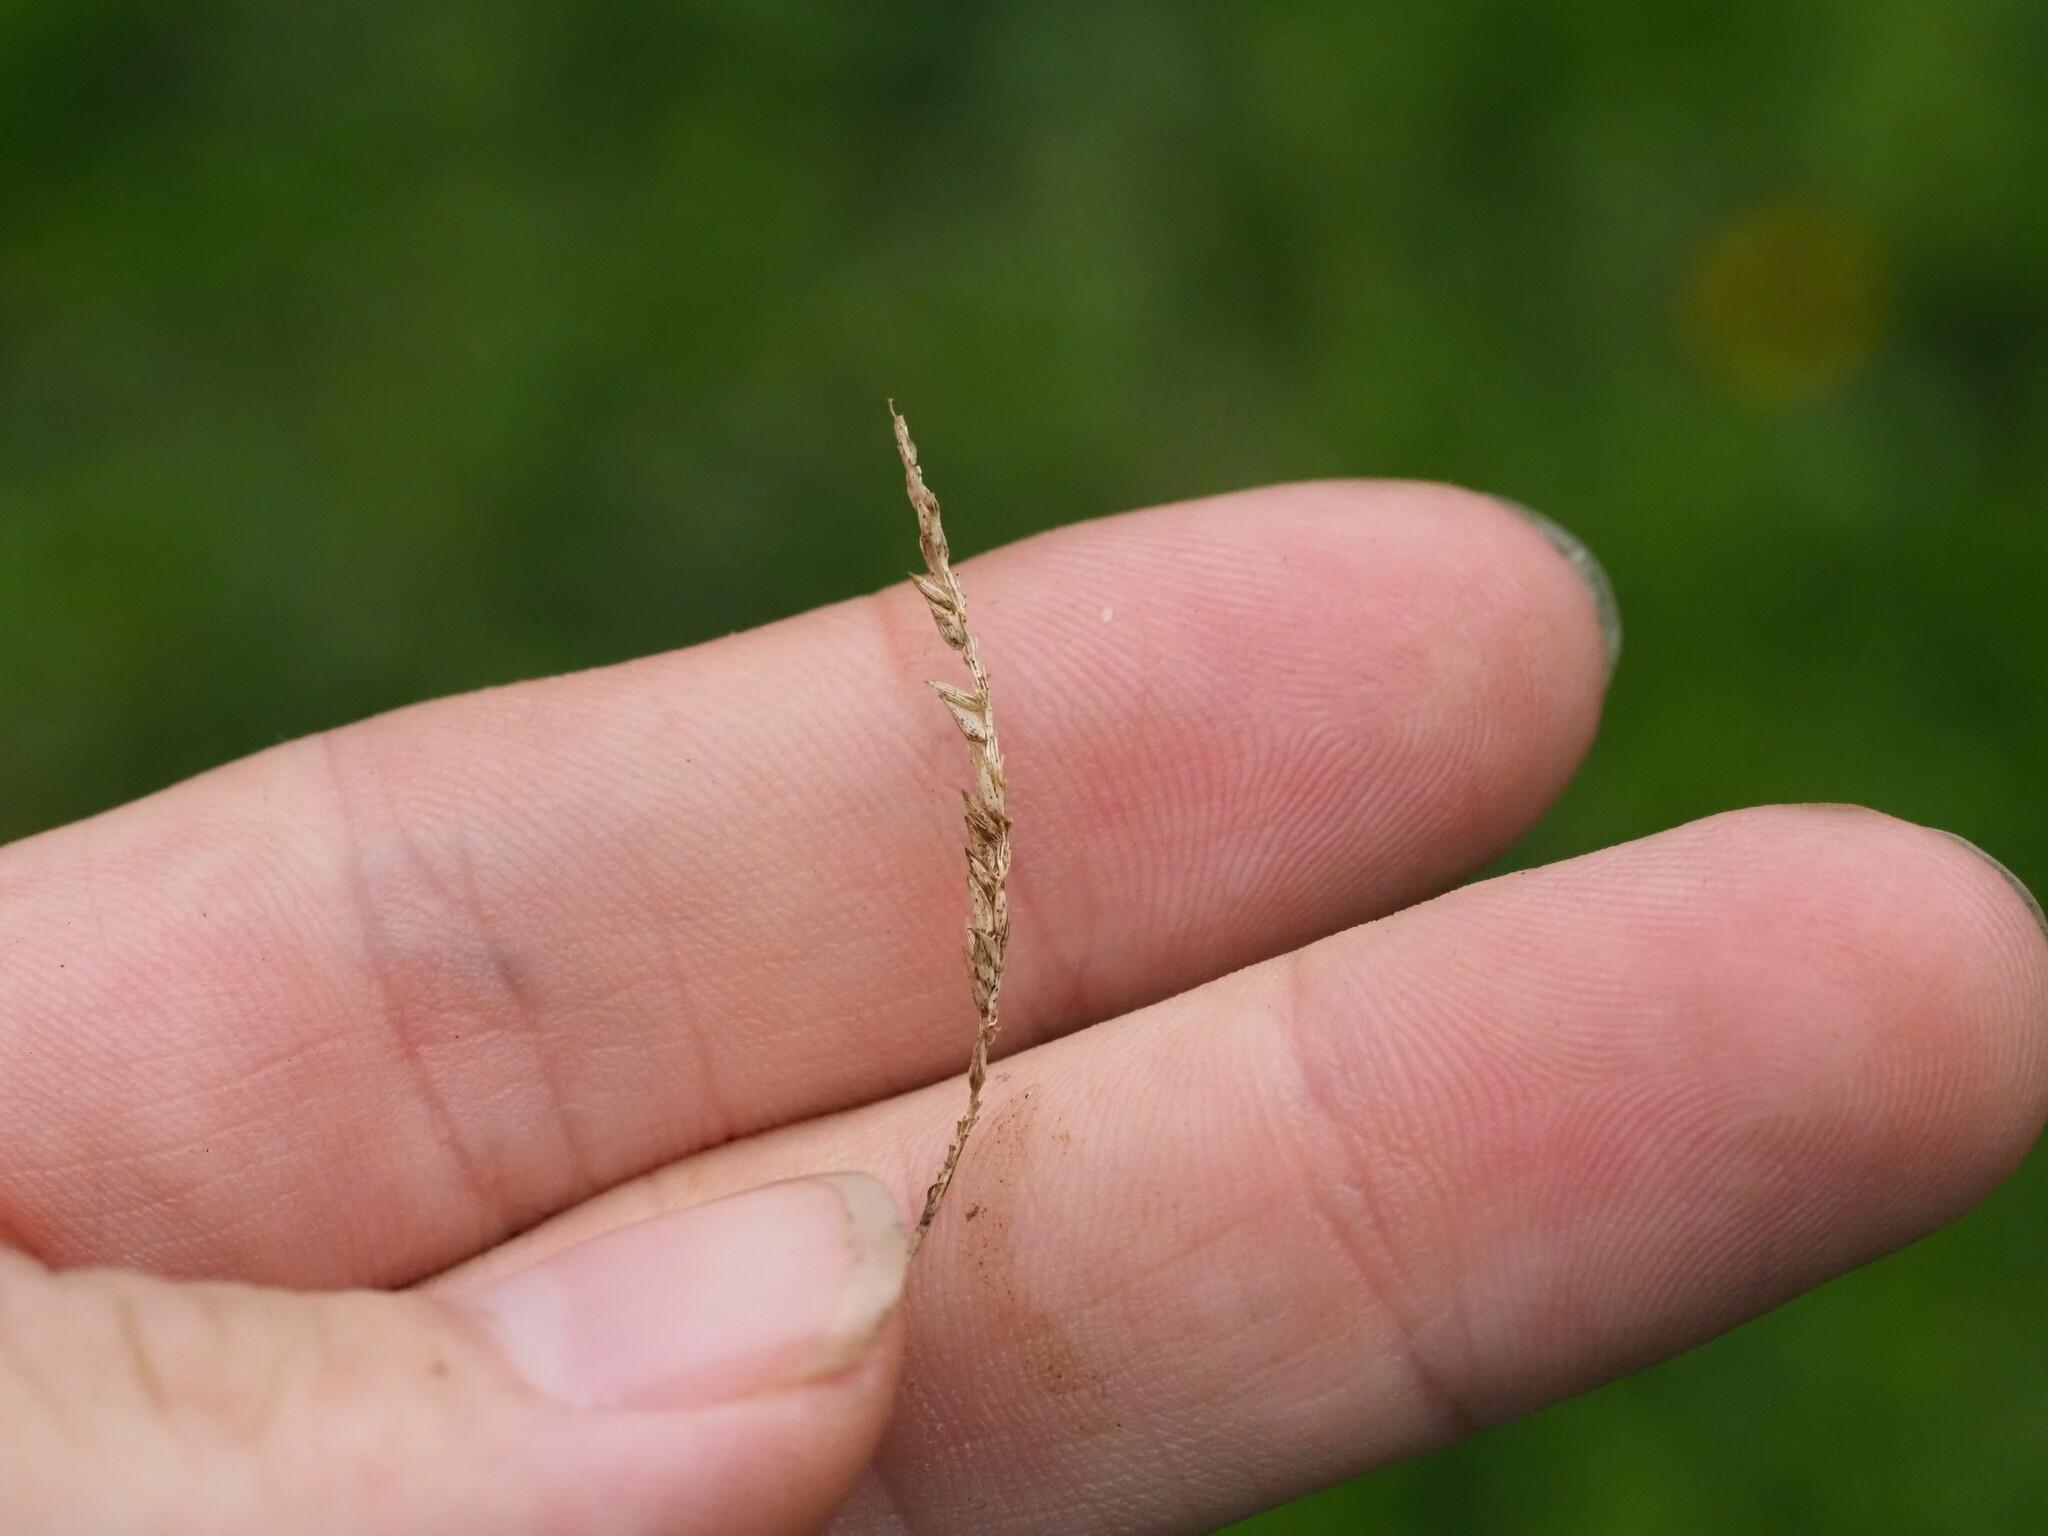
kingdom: Plantae
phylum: Tracheophyta
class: Liliopsida
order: Poales
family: Poaceae
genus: Sacciolepis
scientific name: Sacciolepis indica
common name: Glenwoodgrass
